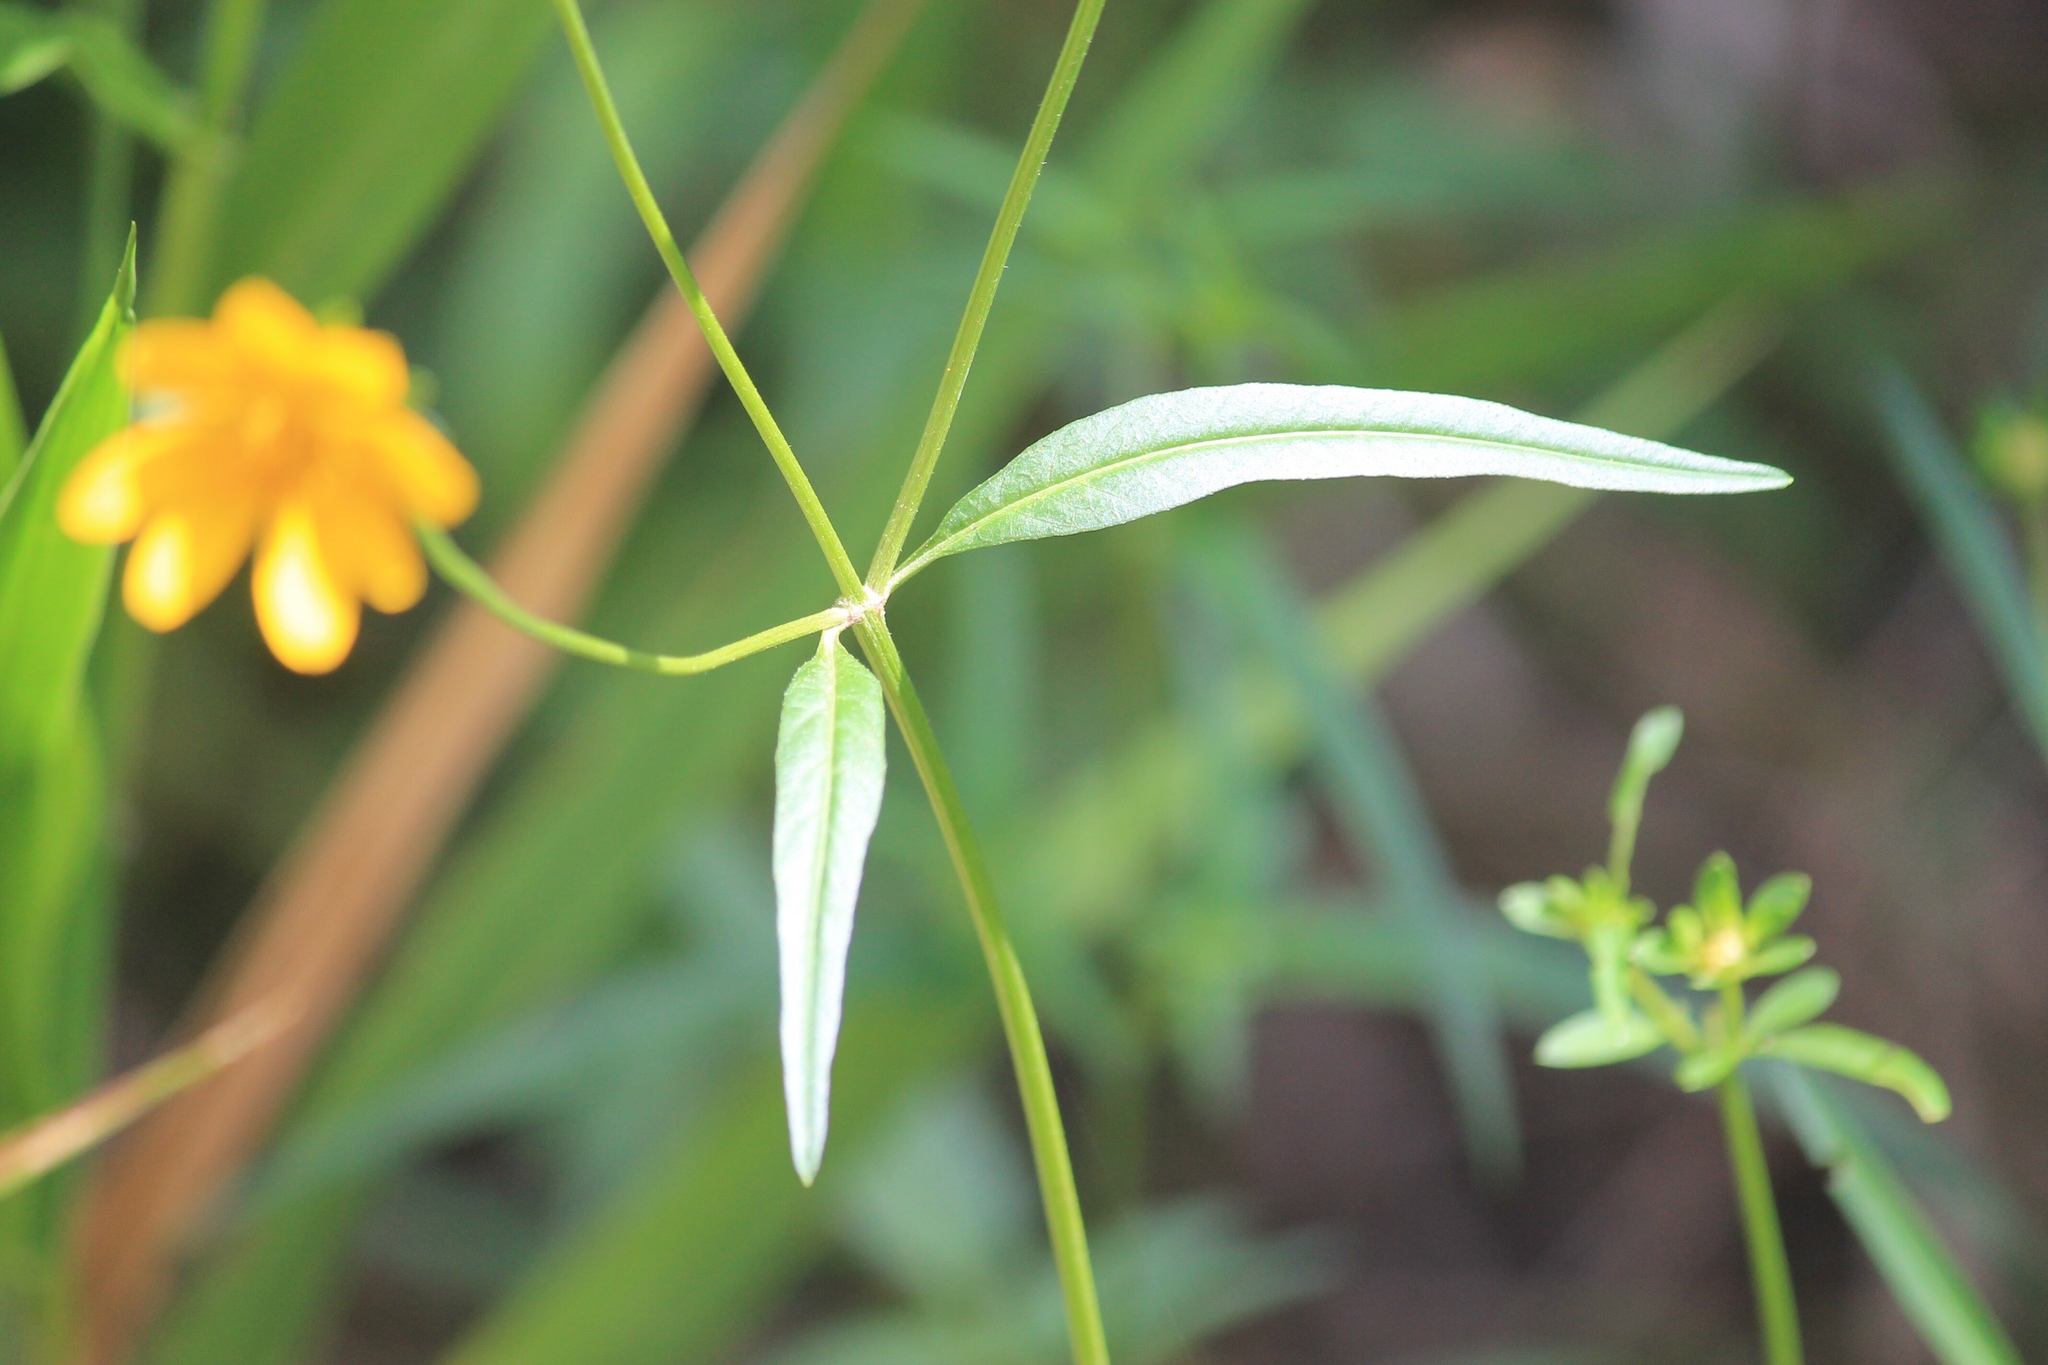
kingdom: Plantae
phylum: Tracheophyta
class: Magnoliopsida
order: Asterales
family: Asteraceae
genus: Bidens
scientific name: Bidens mitis
